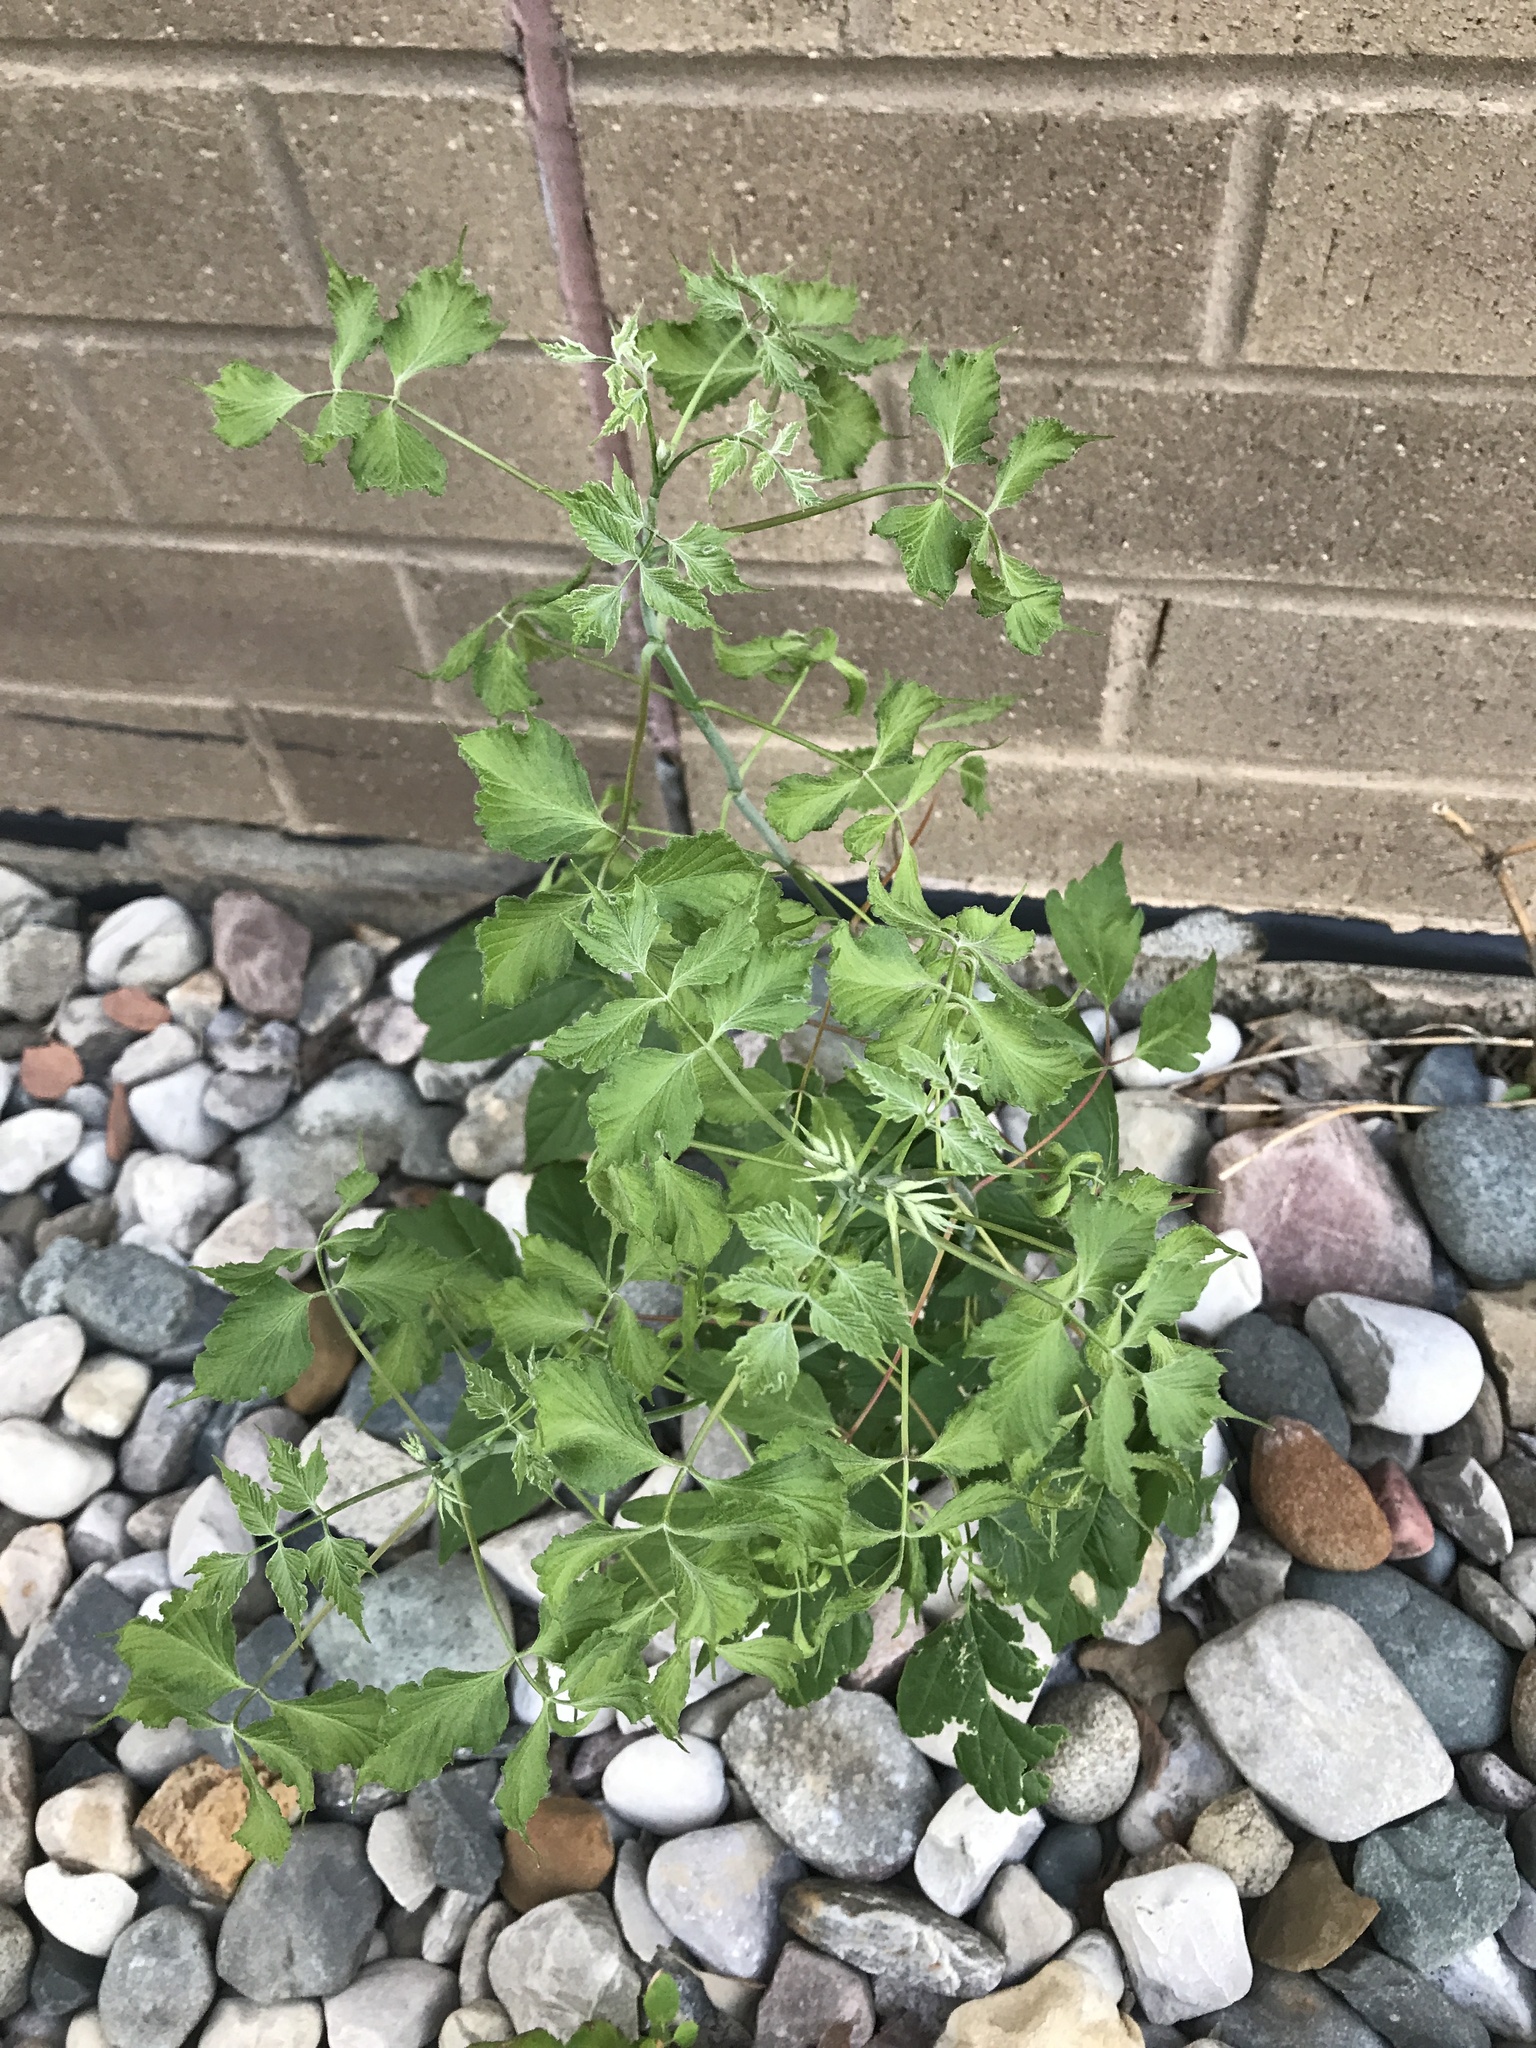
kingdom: Plantae
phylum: Tracheophyta
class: Magnoliopsida
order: Sapindales
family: Sapindaceae
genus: Acer
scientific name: Acer negundo
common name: Ashleaf maple
